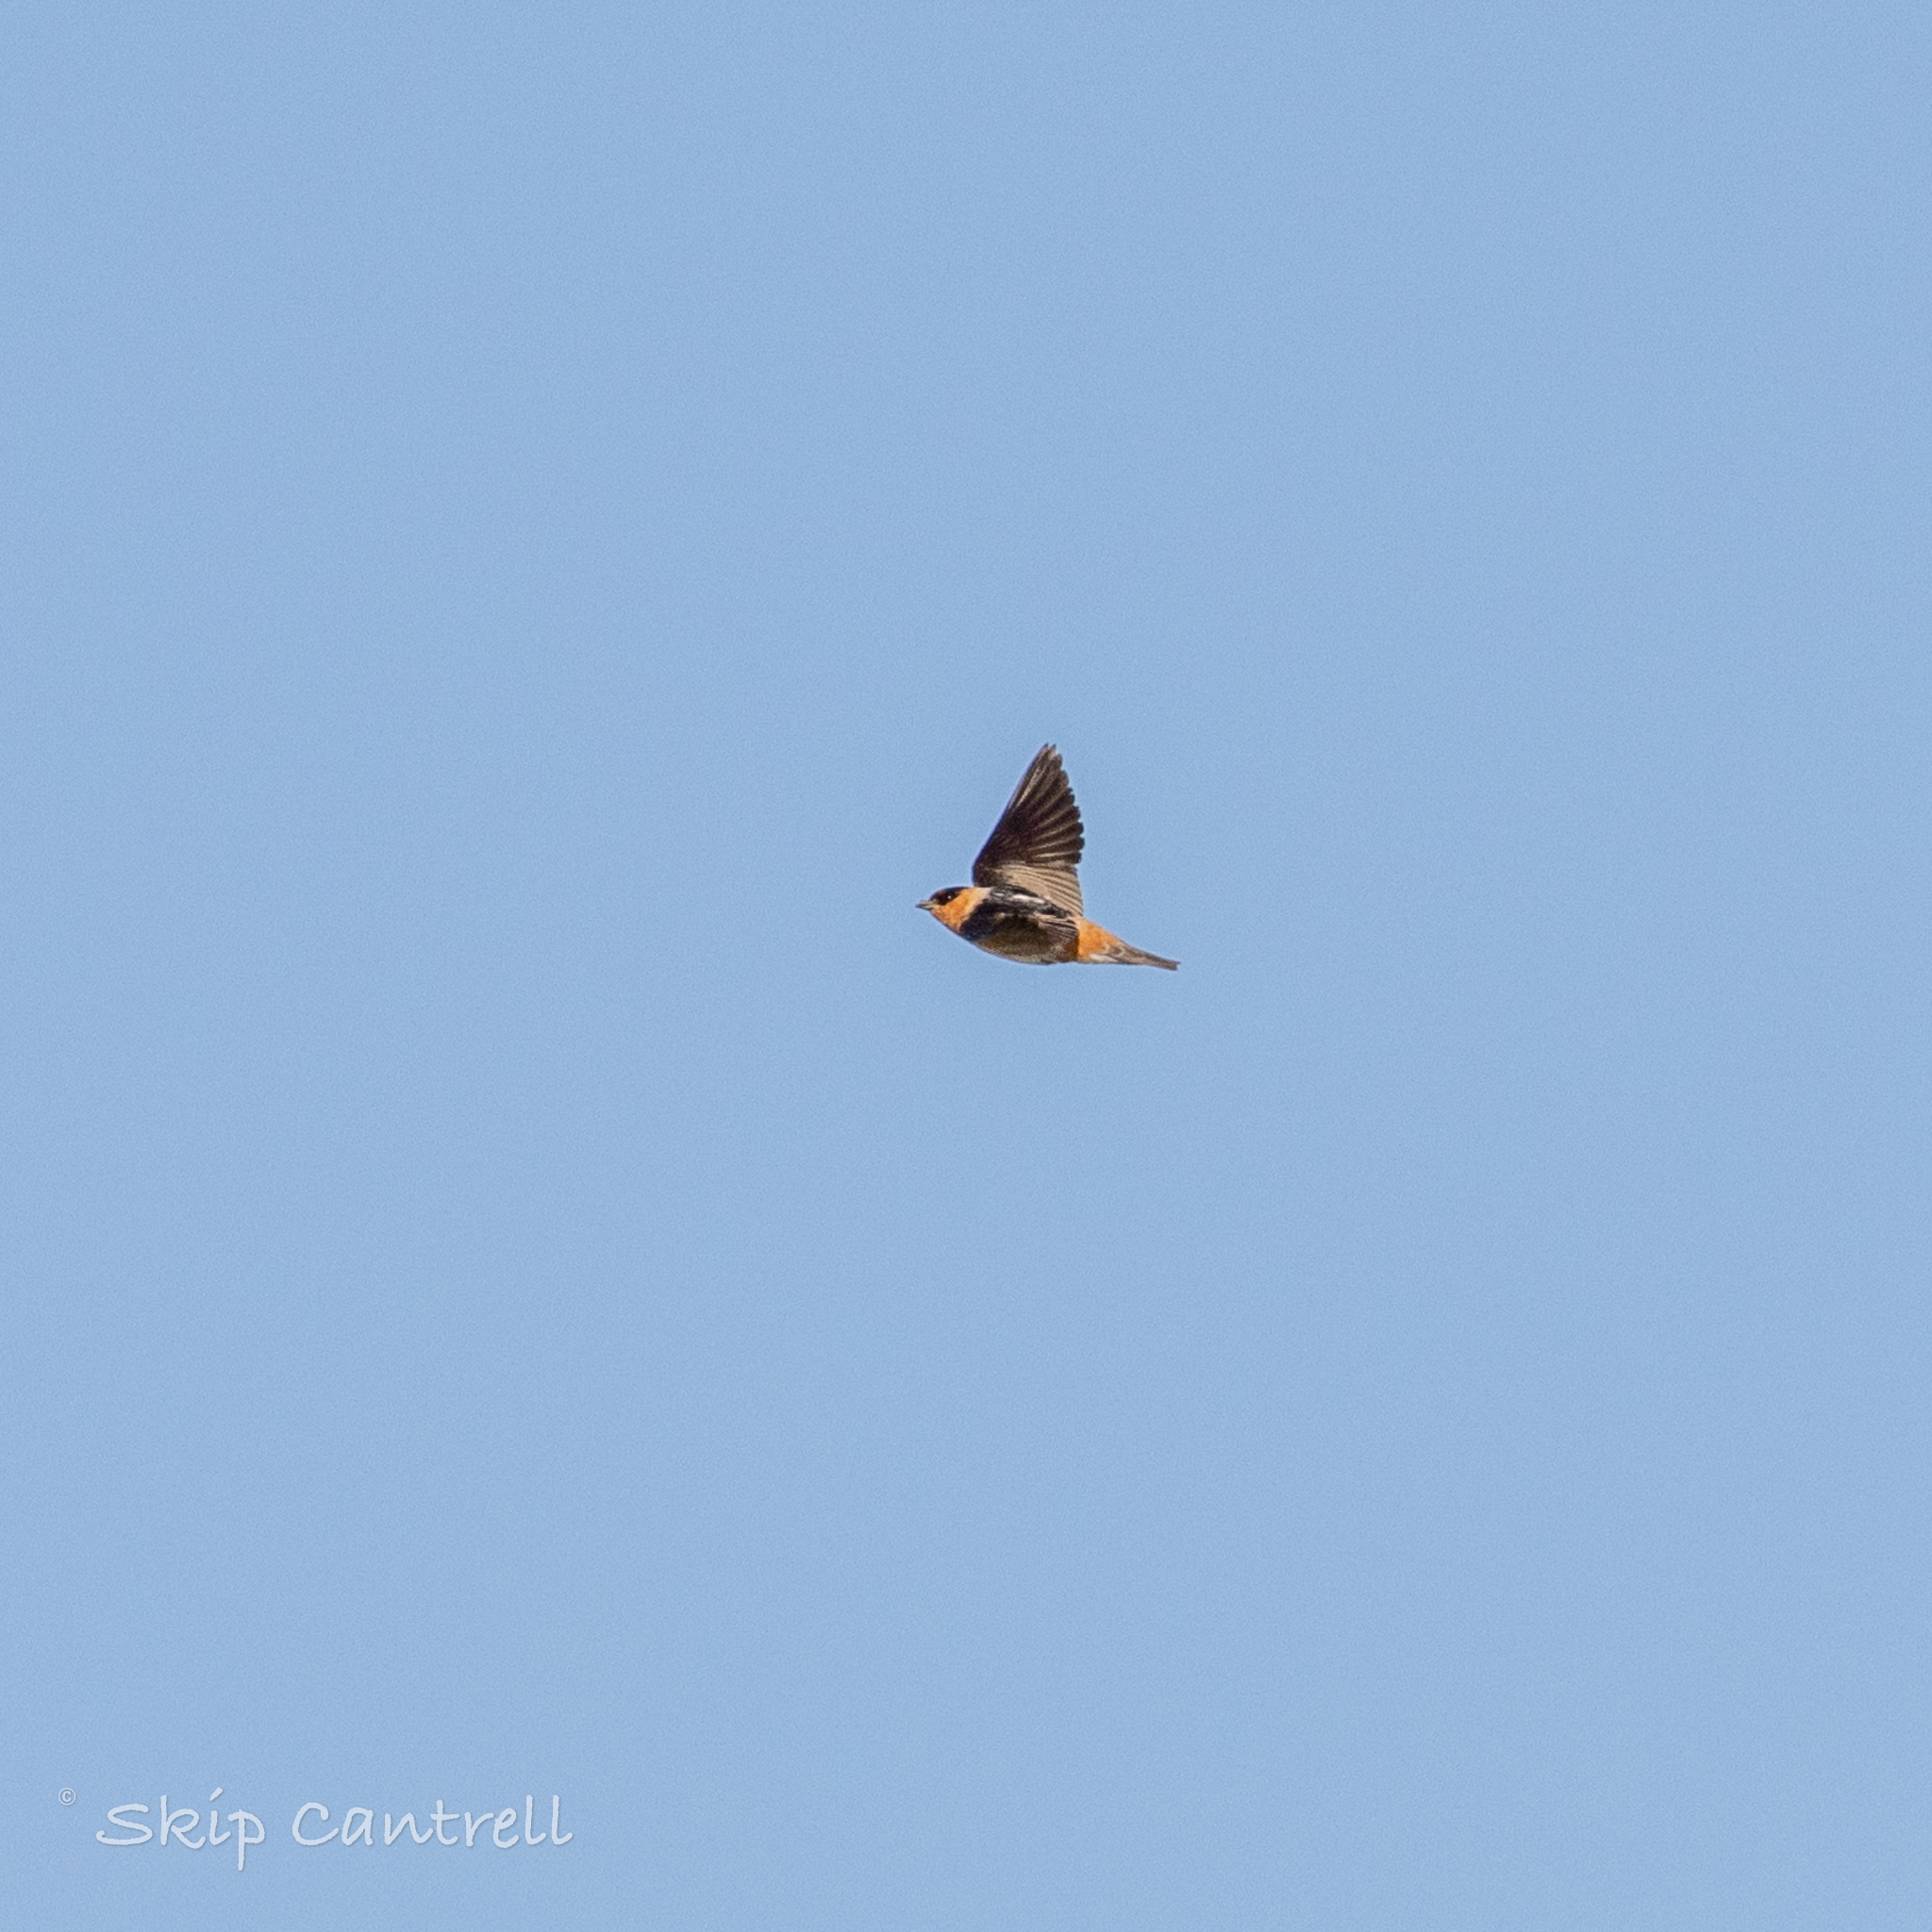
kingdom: Animalia
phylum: Chordata
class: Aves
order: Passeriformes
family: Hirundinidae
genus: Petrochelidon
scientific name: Petrochelidon fulva
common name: Cave swallow
